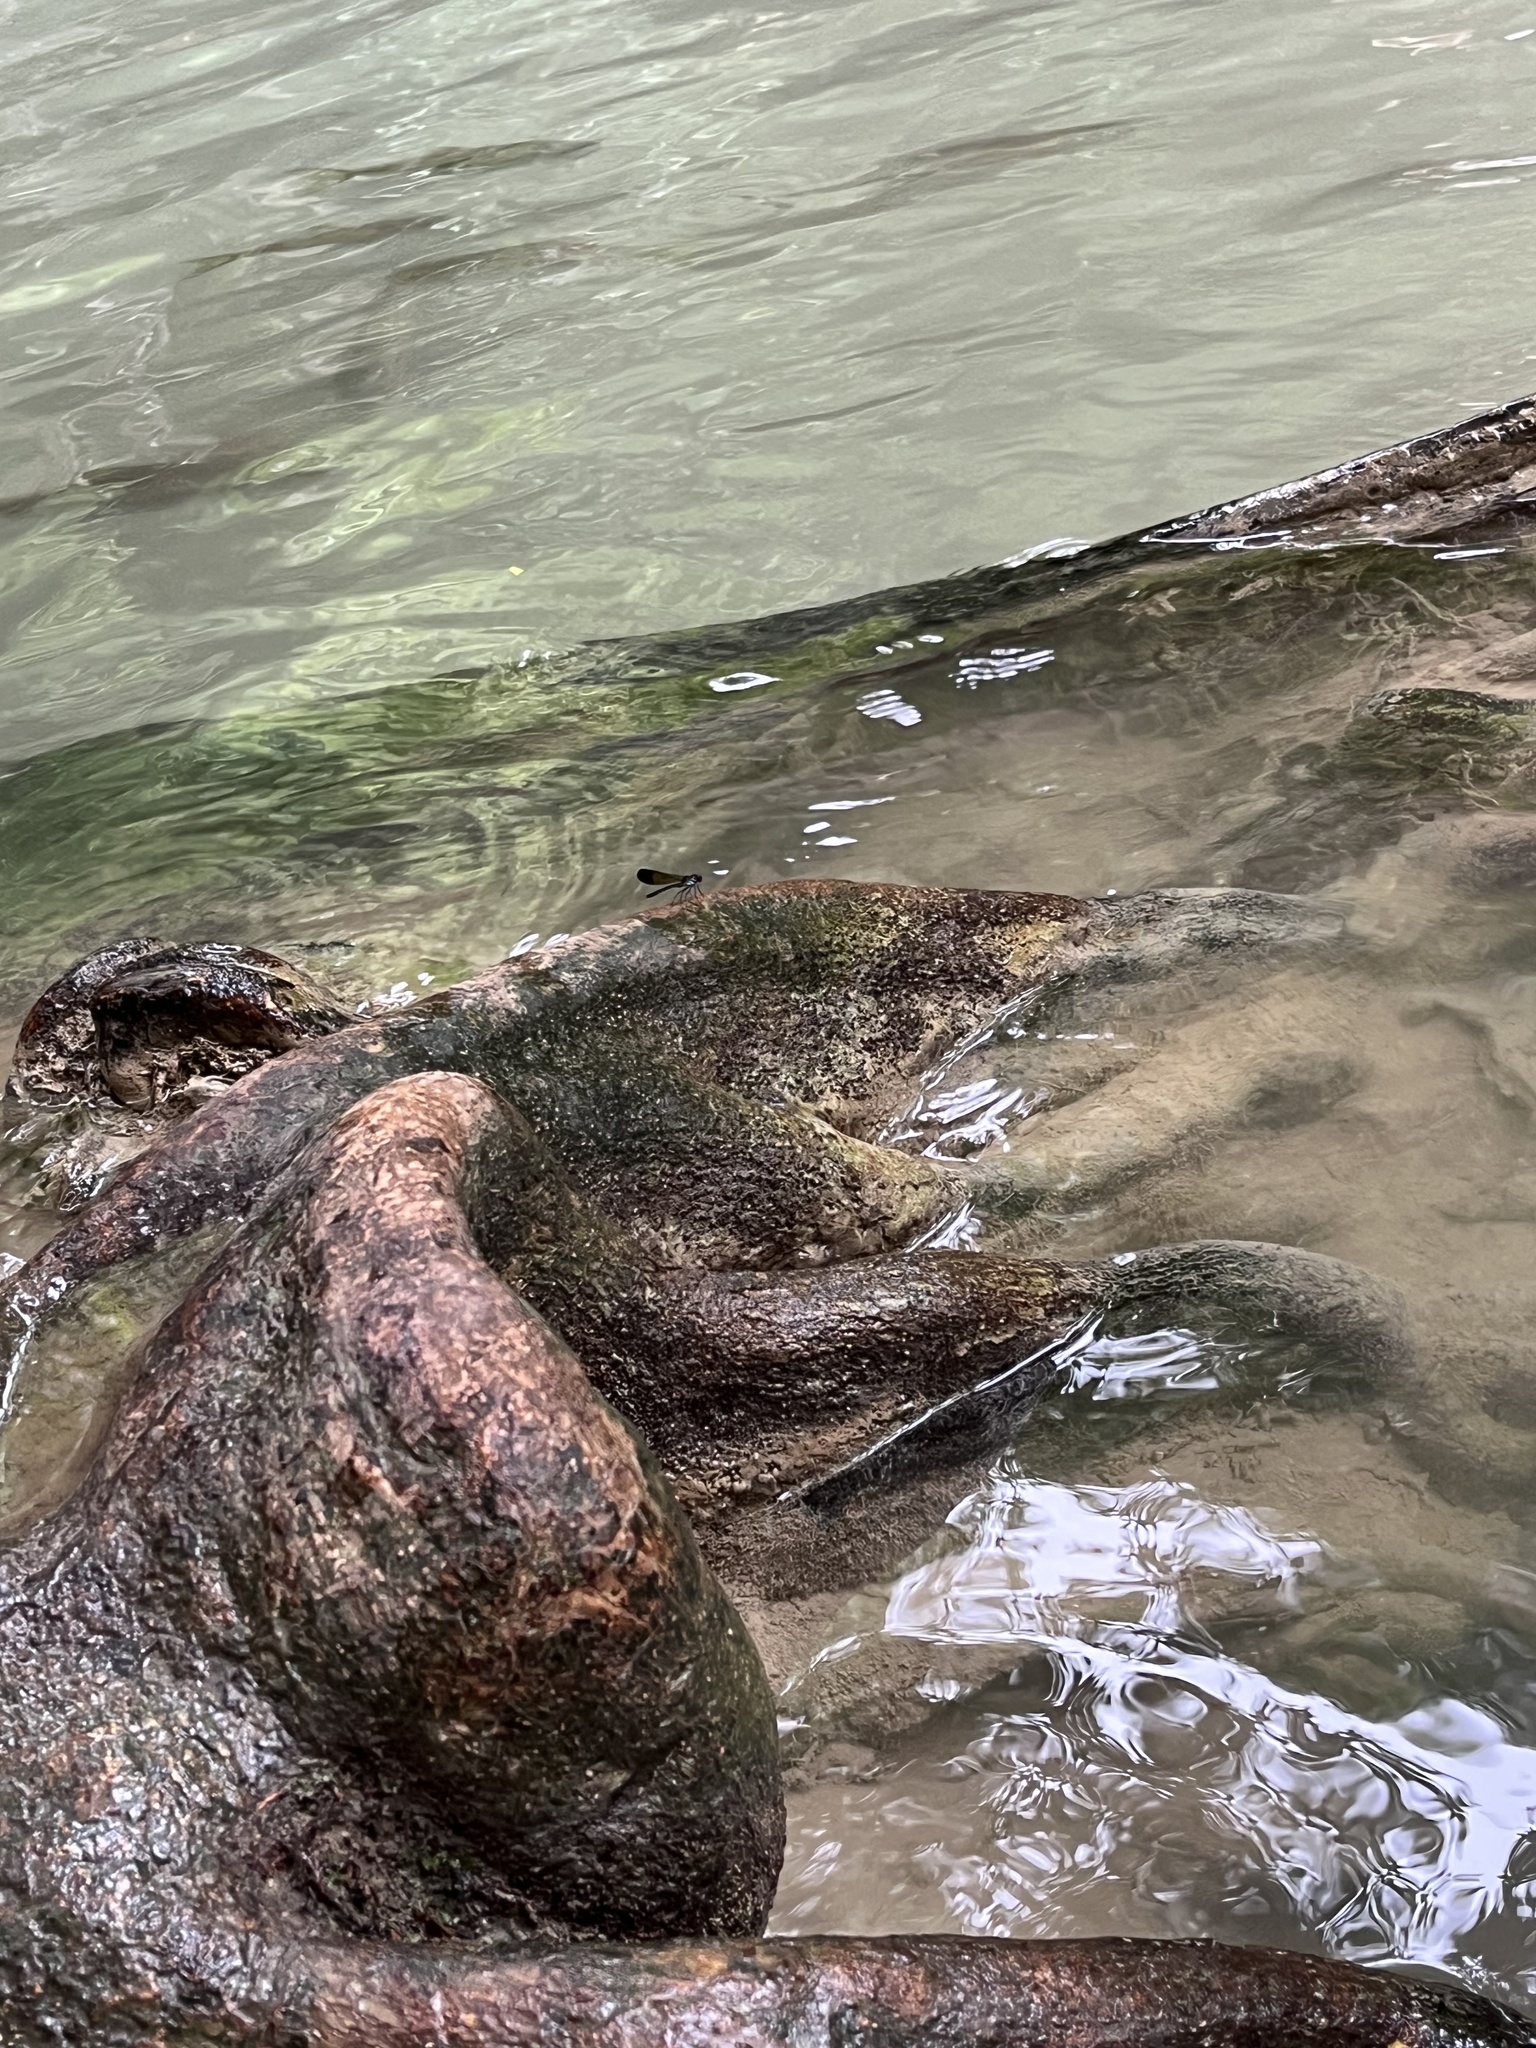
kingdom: Animalia
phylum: Arthropoda
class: Insecta
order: Odonata
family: Chlorocyphidae
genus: Heliocypha
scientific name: Heliocypha biforata
